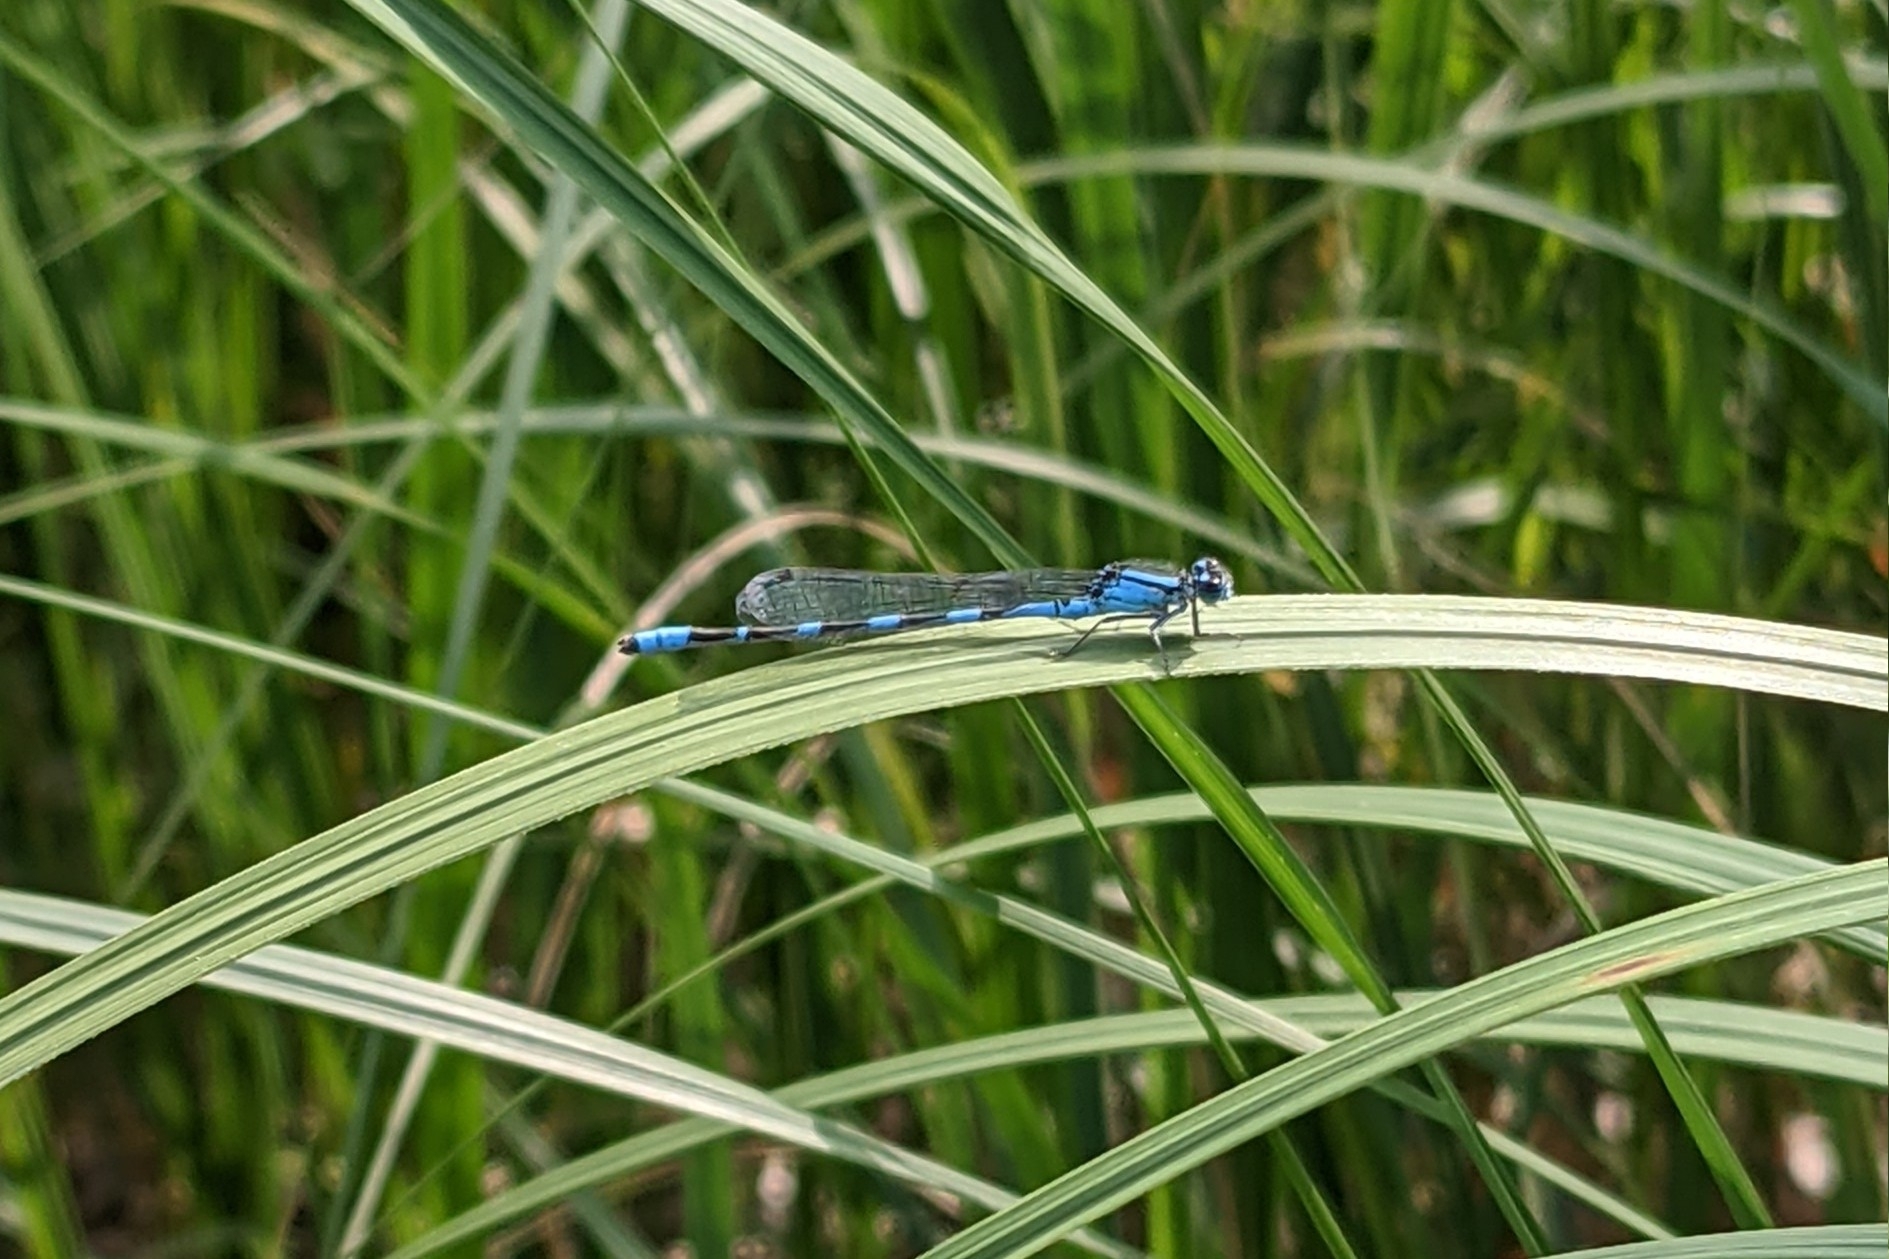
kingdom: Animalia
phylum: Arthropoda
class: Insecta
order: Odonata
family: Coenagrionidae
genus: Enallagma
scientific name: Enallagma carunculatum
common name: Tule bluet
